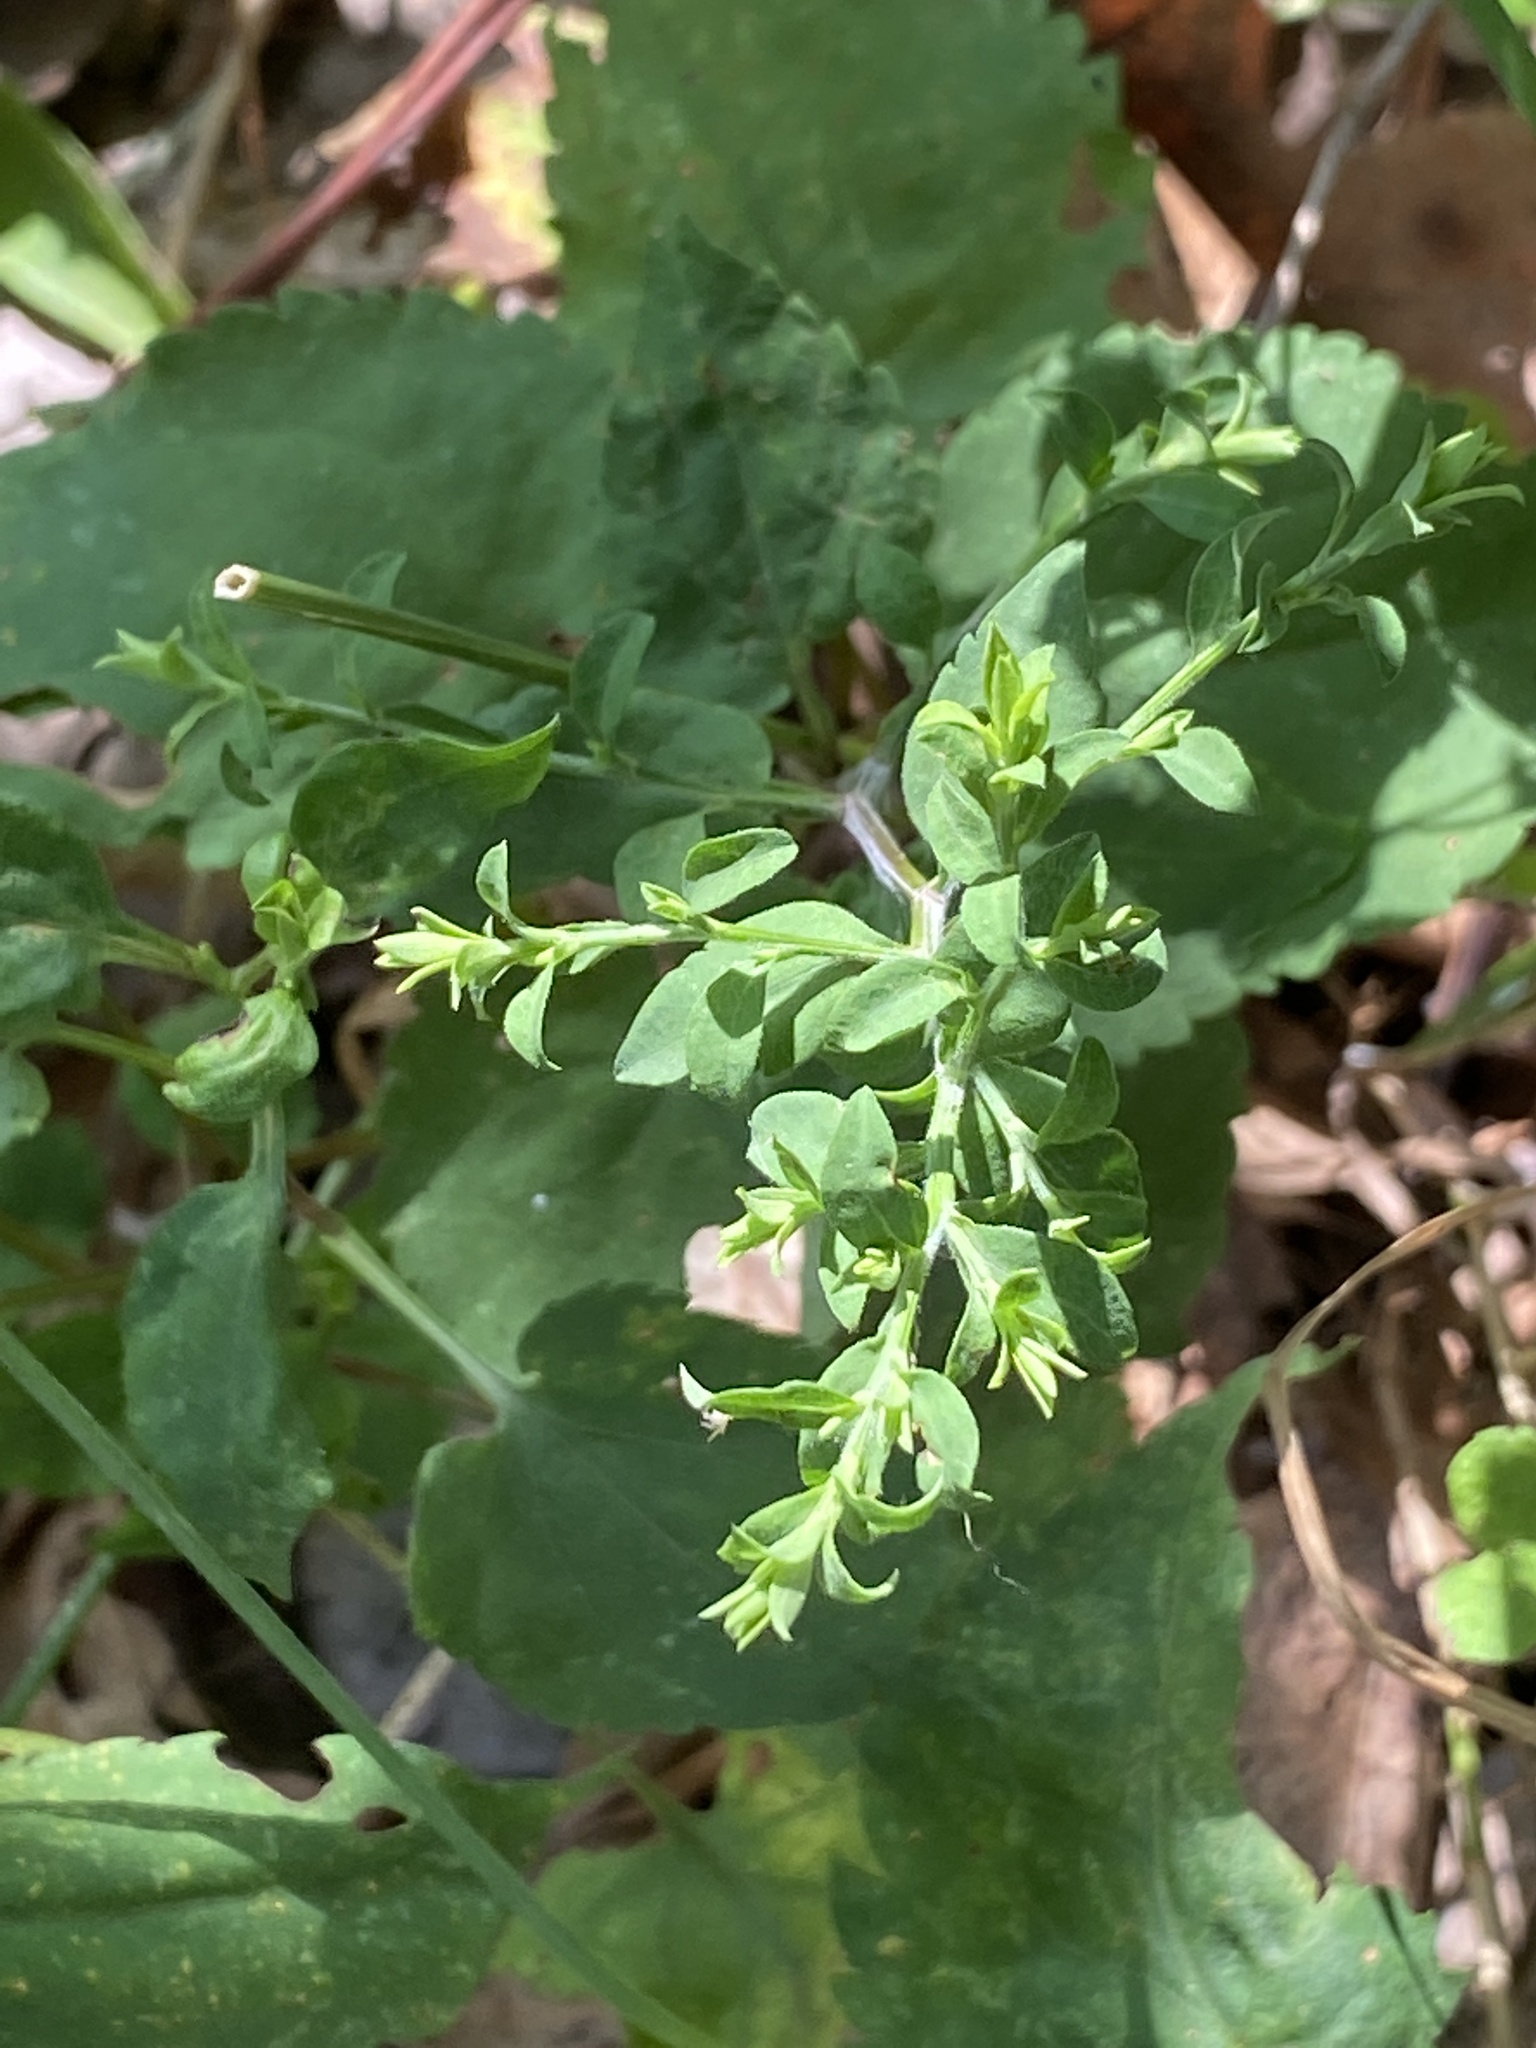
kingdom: Plantae
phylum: Tracheophyta
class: Magnoliopsida
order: Asterales
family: Asteraceae
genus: Symphyotrichum
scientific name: Symphyotrichum cordifolium
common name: Beeweed
